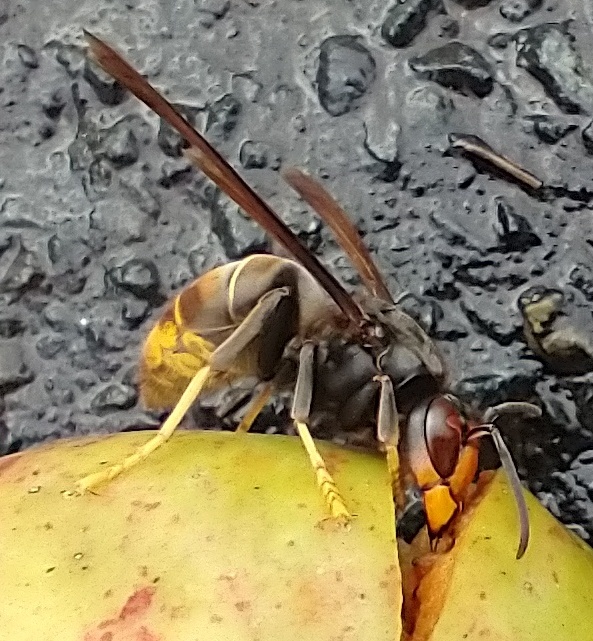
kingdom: Animalia
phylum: Arthropoda
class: Insecta
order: Hymenoptera
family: Vespidae
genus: Vespa
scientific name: Vespa velutina
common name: Asian hornet
